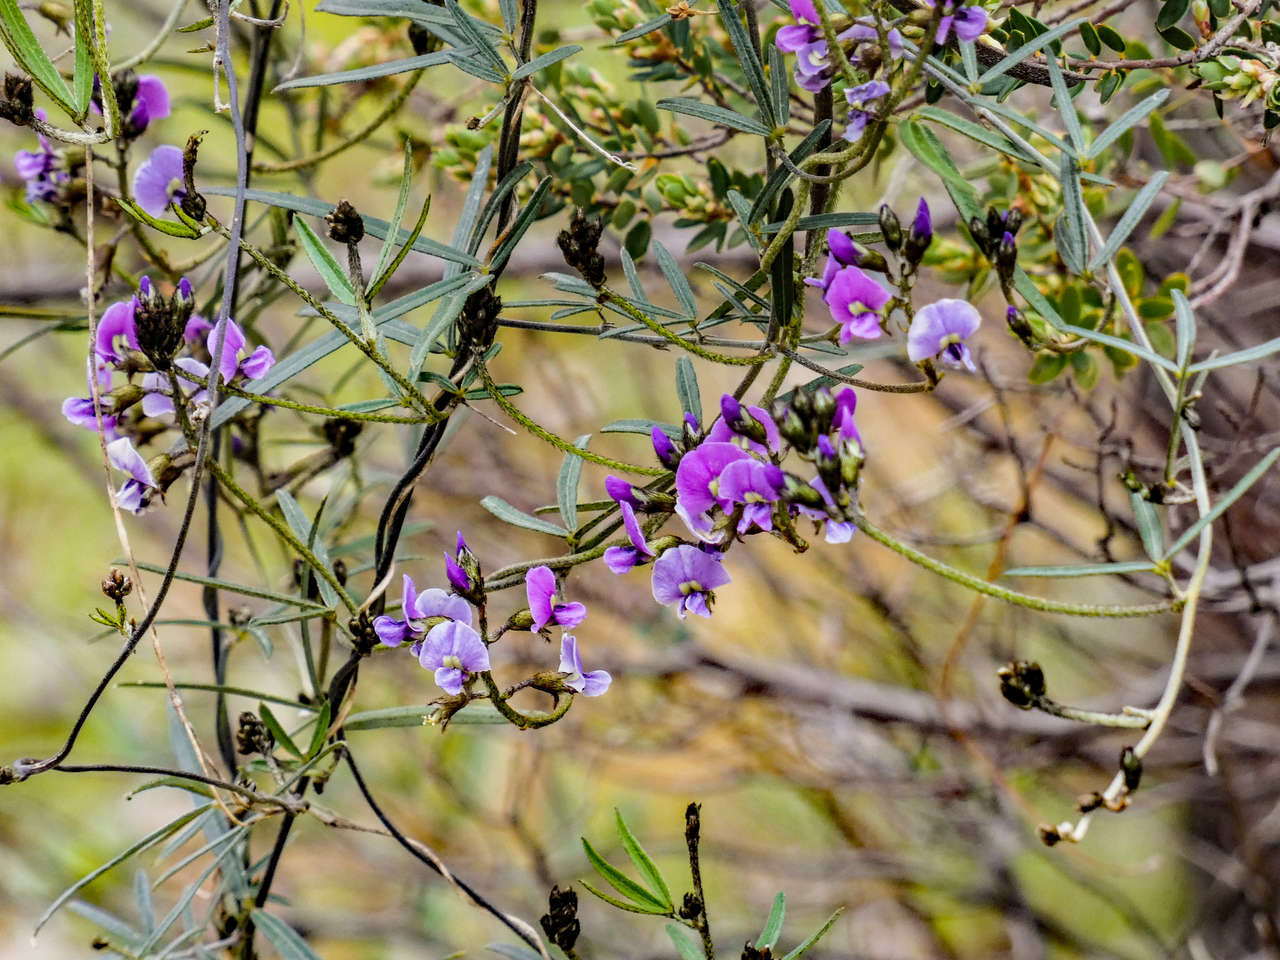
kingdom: Plantae
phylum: Tracheophyta
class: Magnoliopsida
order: Fabales
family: Fabaceae
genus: Glycine
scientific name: Glycine clandestina
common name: Twining glycine
